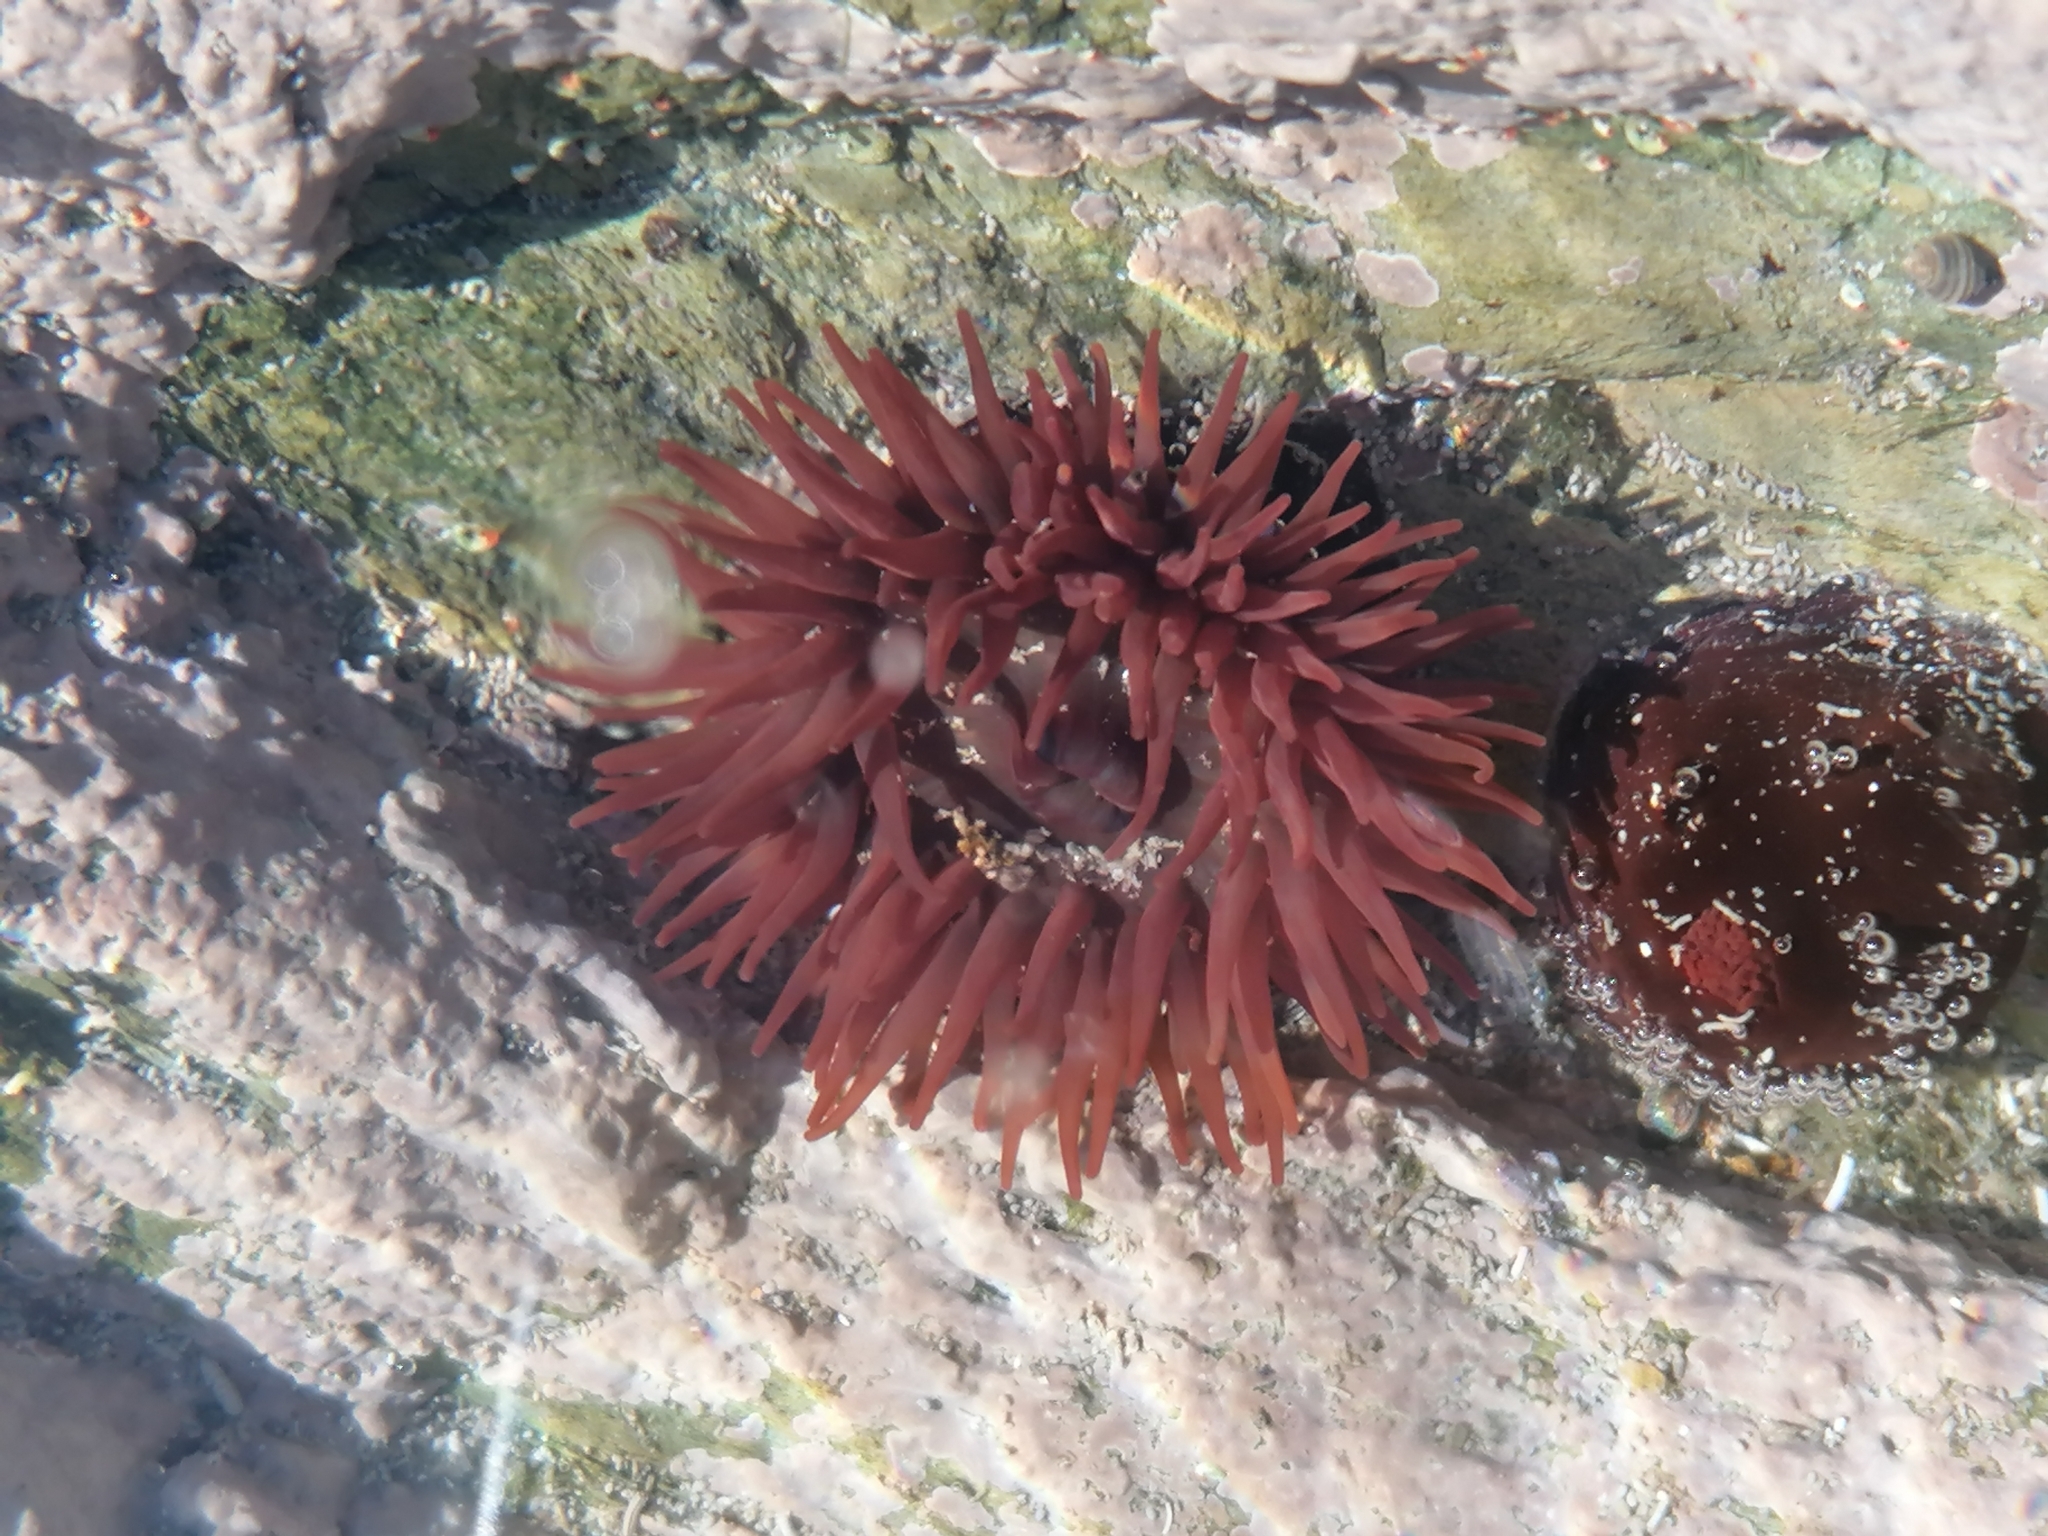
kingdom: Animalia
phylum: Cnidaria
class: Anthozoa
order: Actiniaria
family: Actiniidae
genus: Actinia
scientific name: Actinia equina
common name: Beadlet anemone
